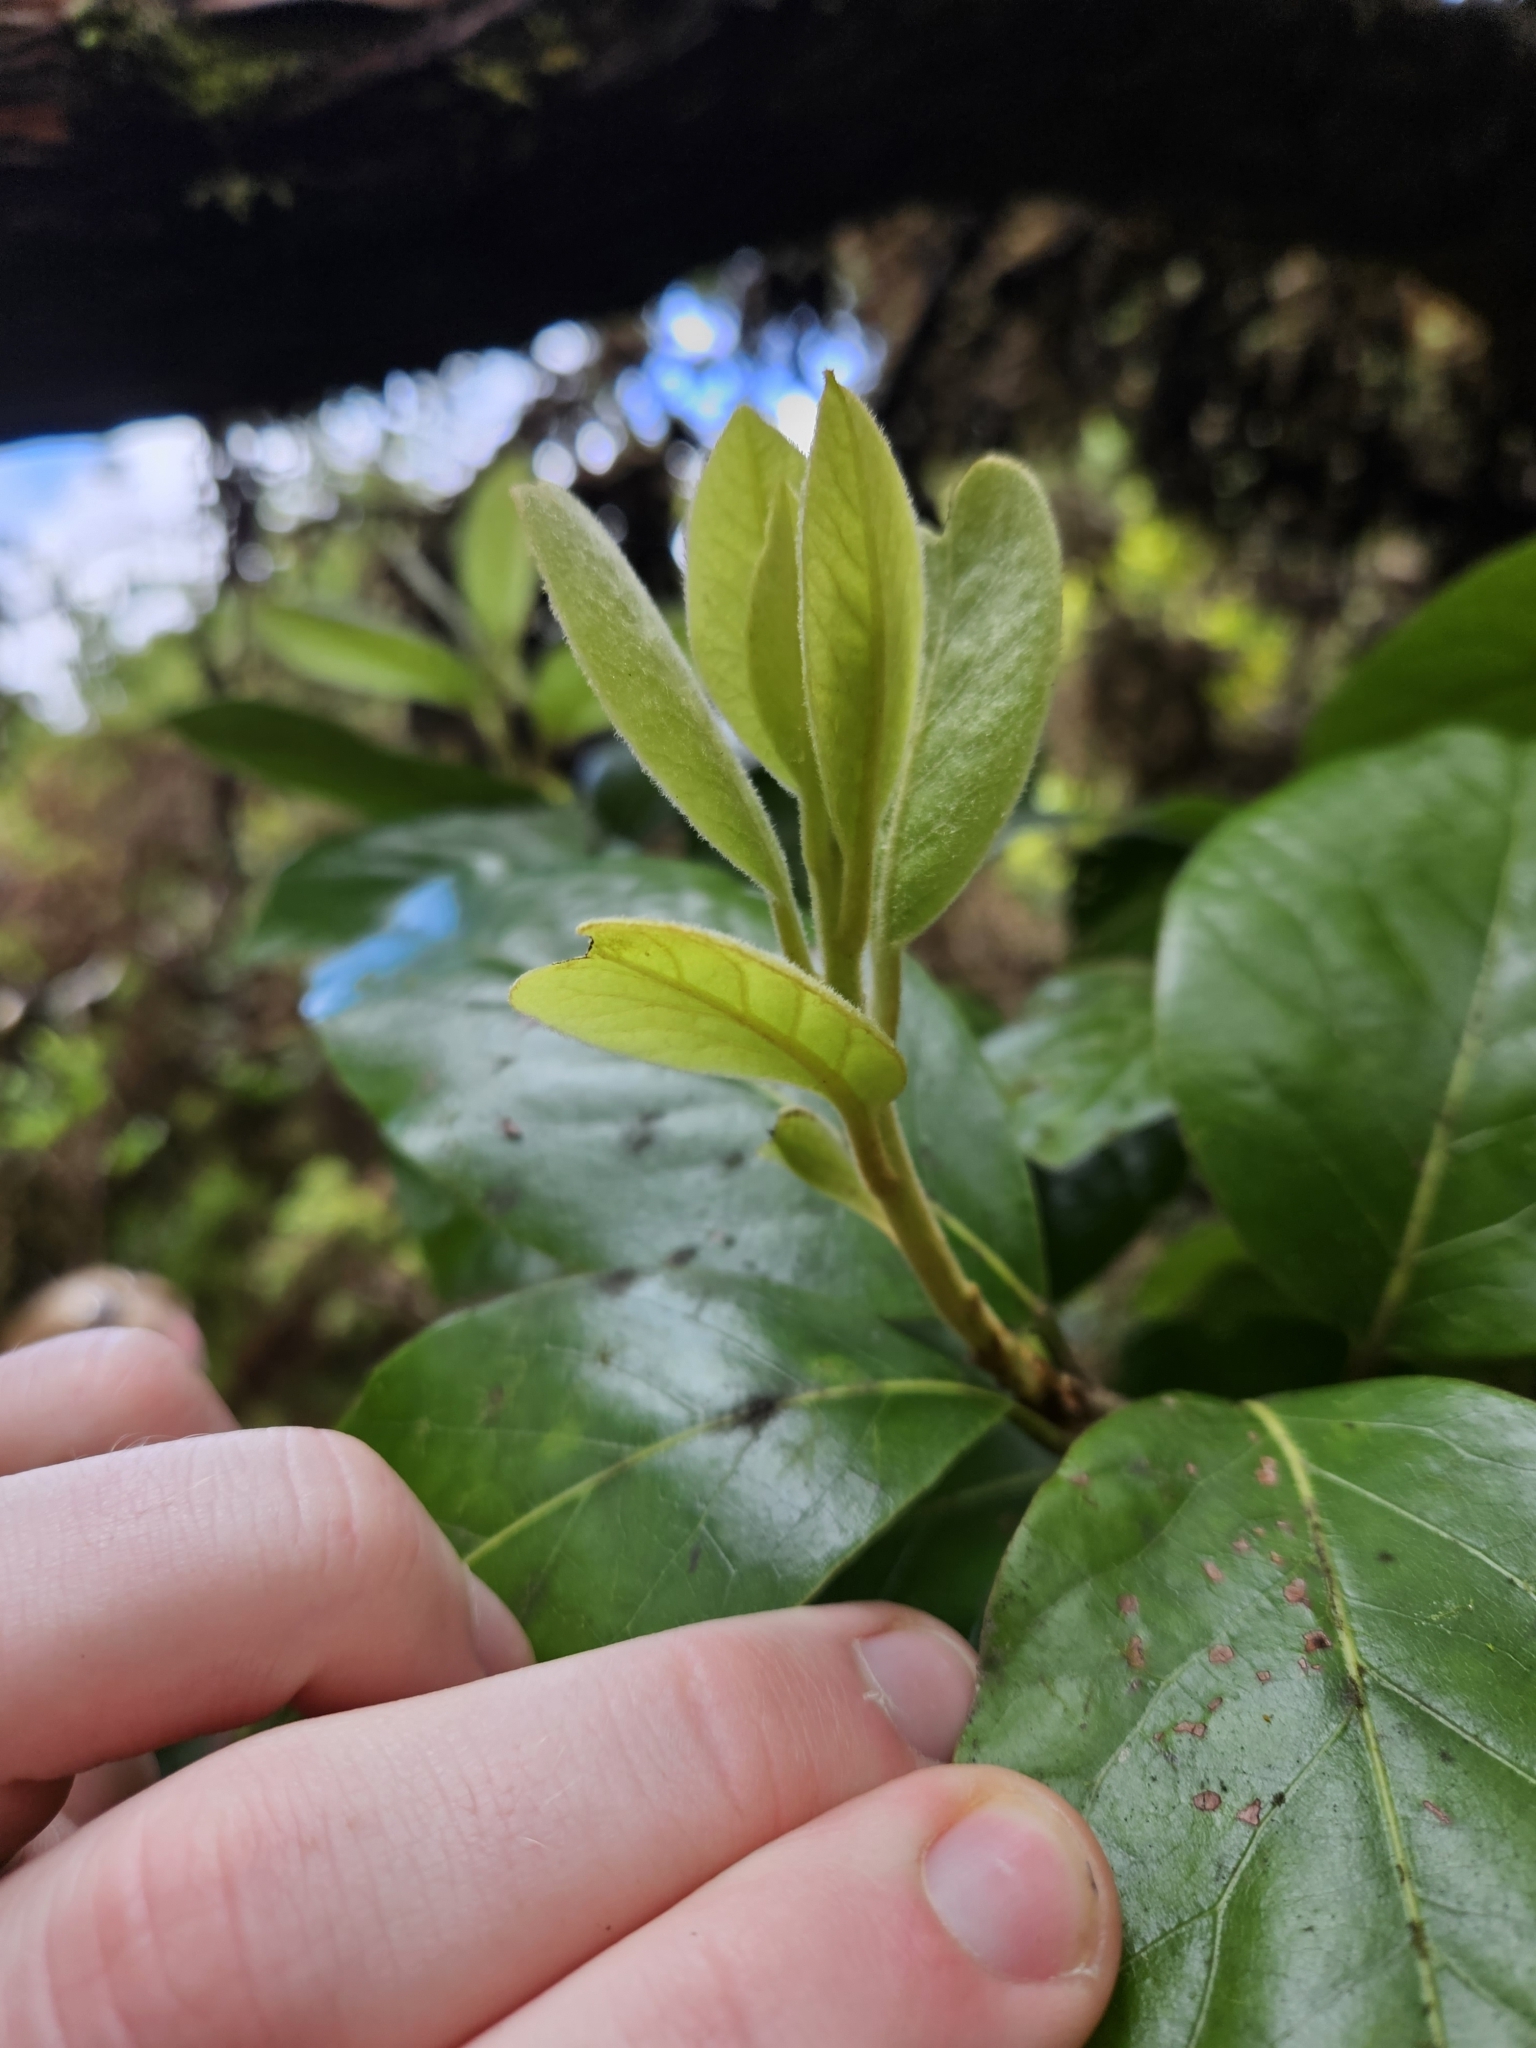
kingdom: Plantae
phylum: Tracheophyta
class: Magnoliopsida
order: Laurales
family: Lauraceae
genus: Laurus
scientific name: Laurus azorica
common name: Macaronesian laurel
